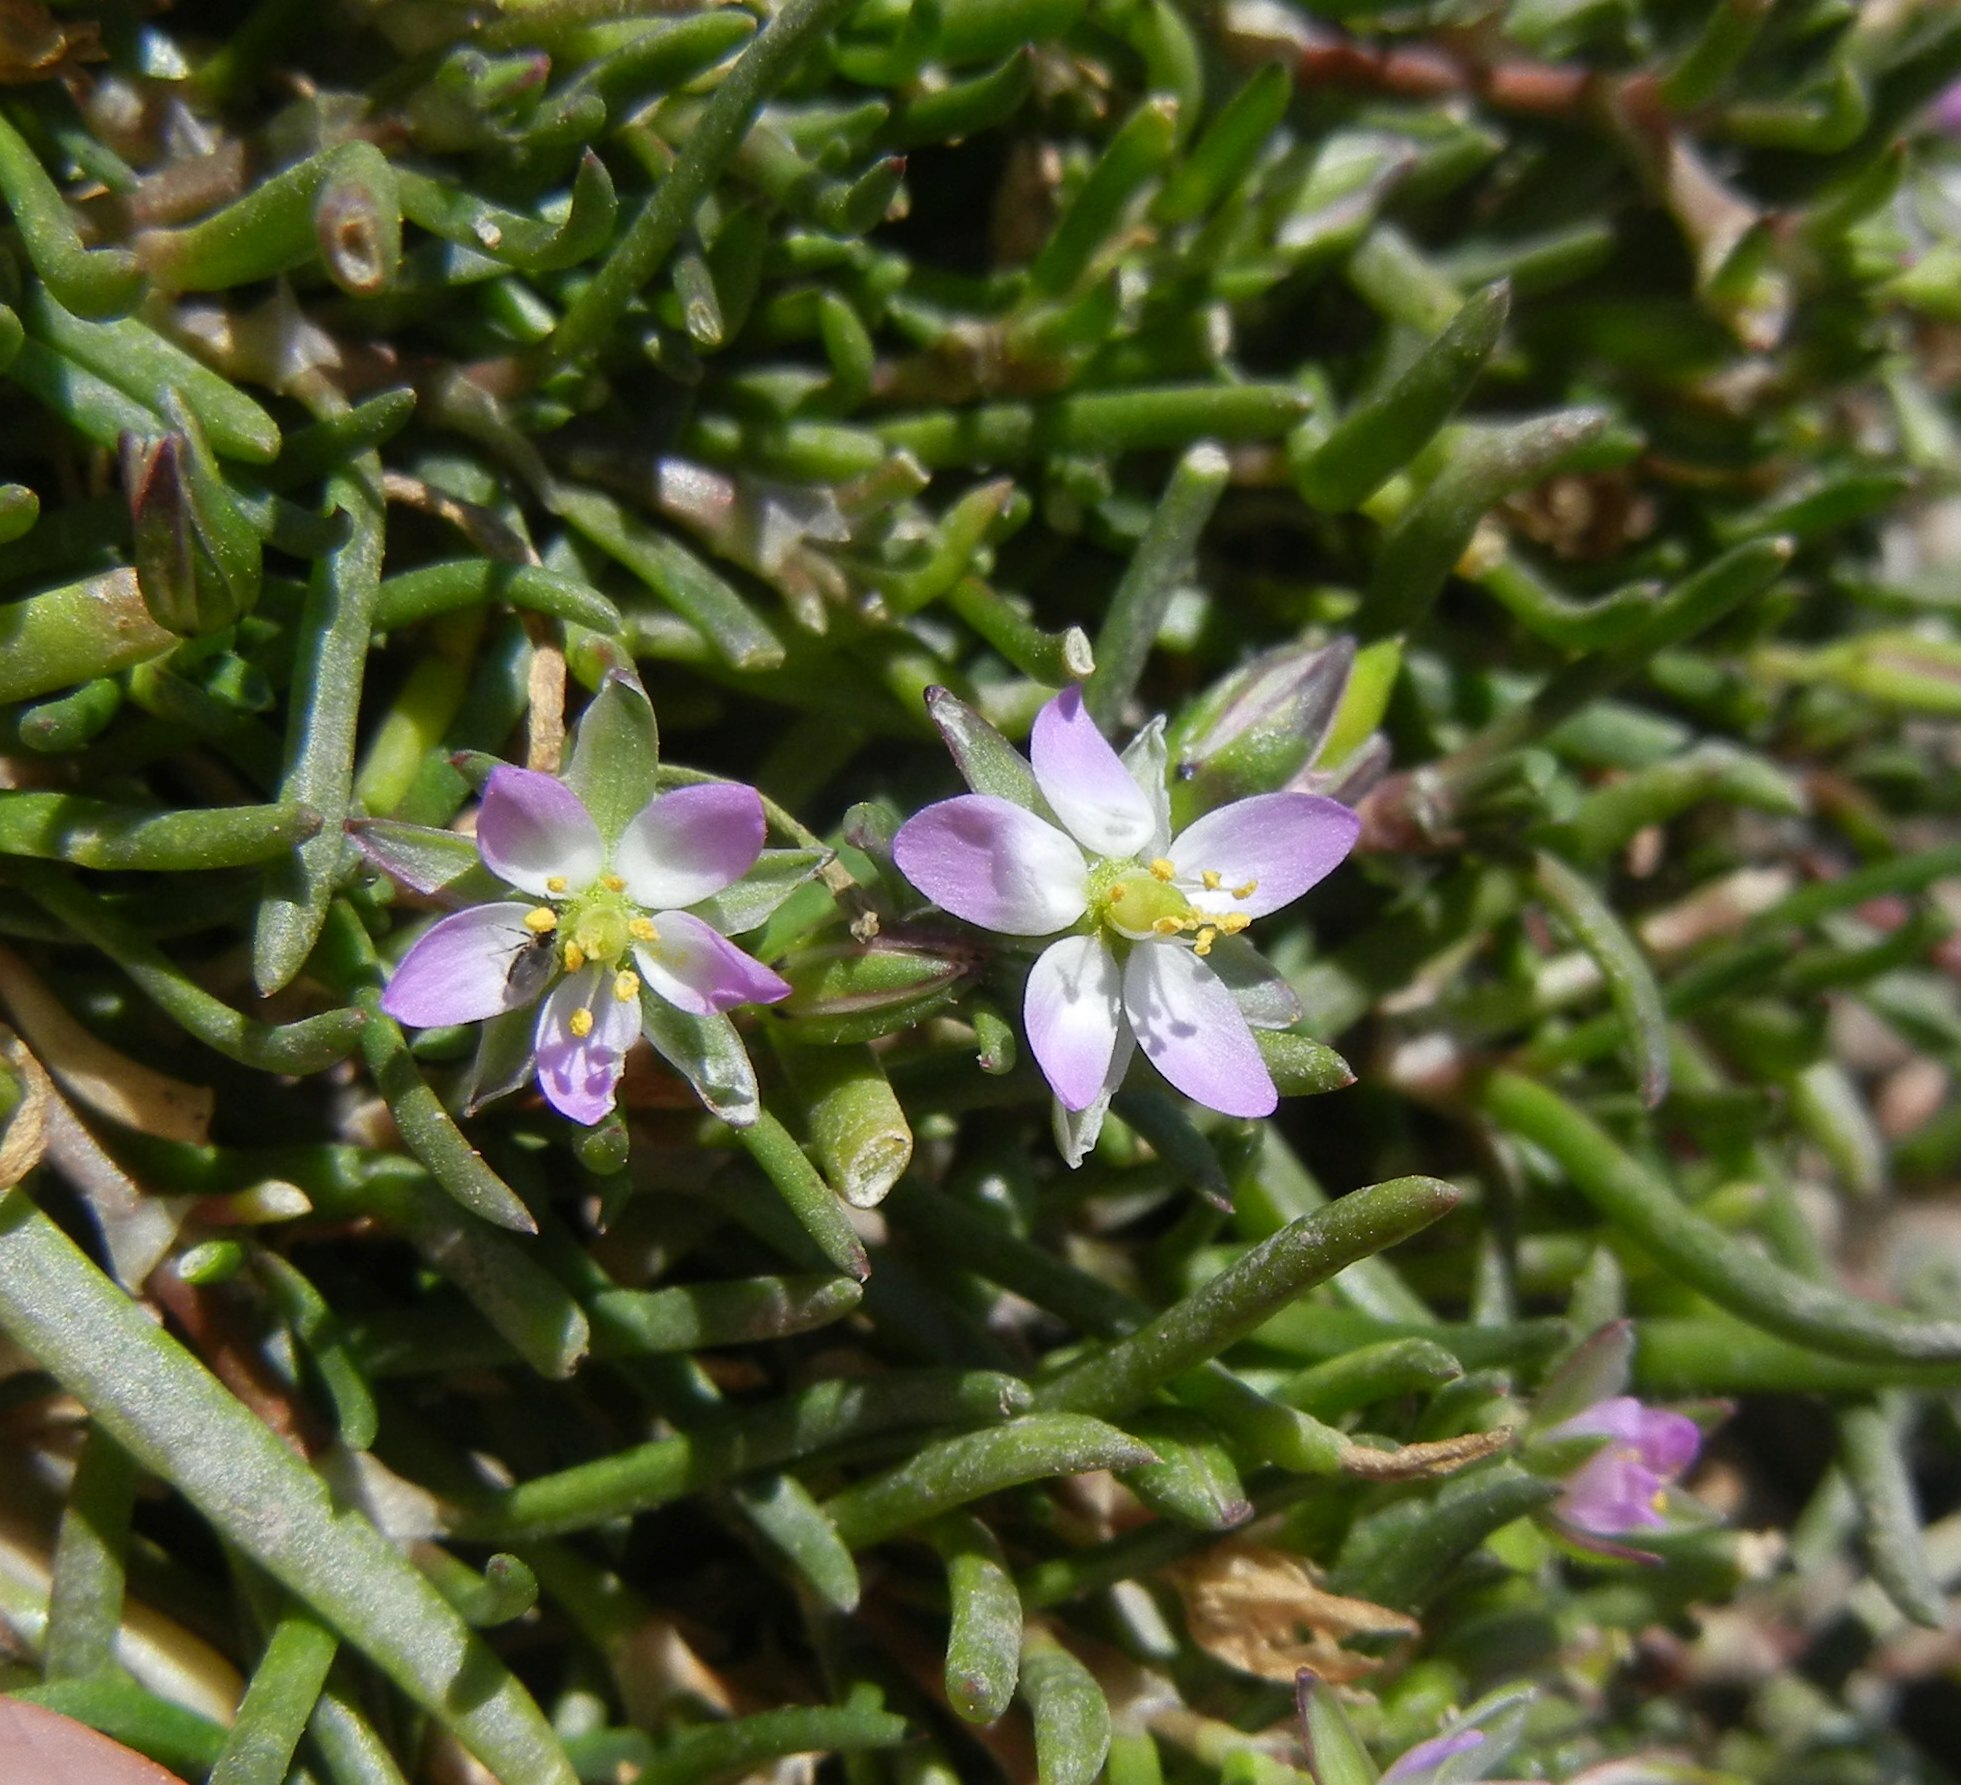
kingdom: Plantae
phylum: Tracheophyta
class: Magnoliopsida
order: Caryophyllales
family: Caryophyllaceae
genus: Spergularia
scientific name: Spergularia marina
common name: Lesser sea-spurrey
